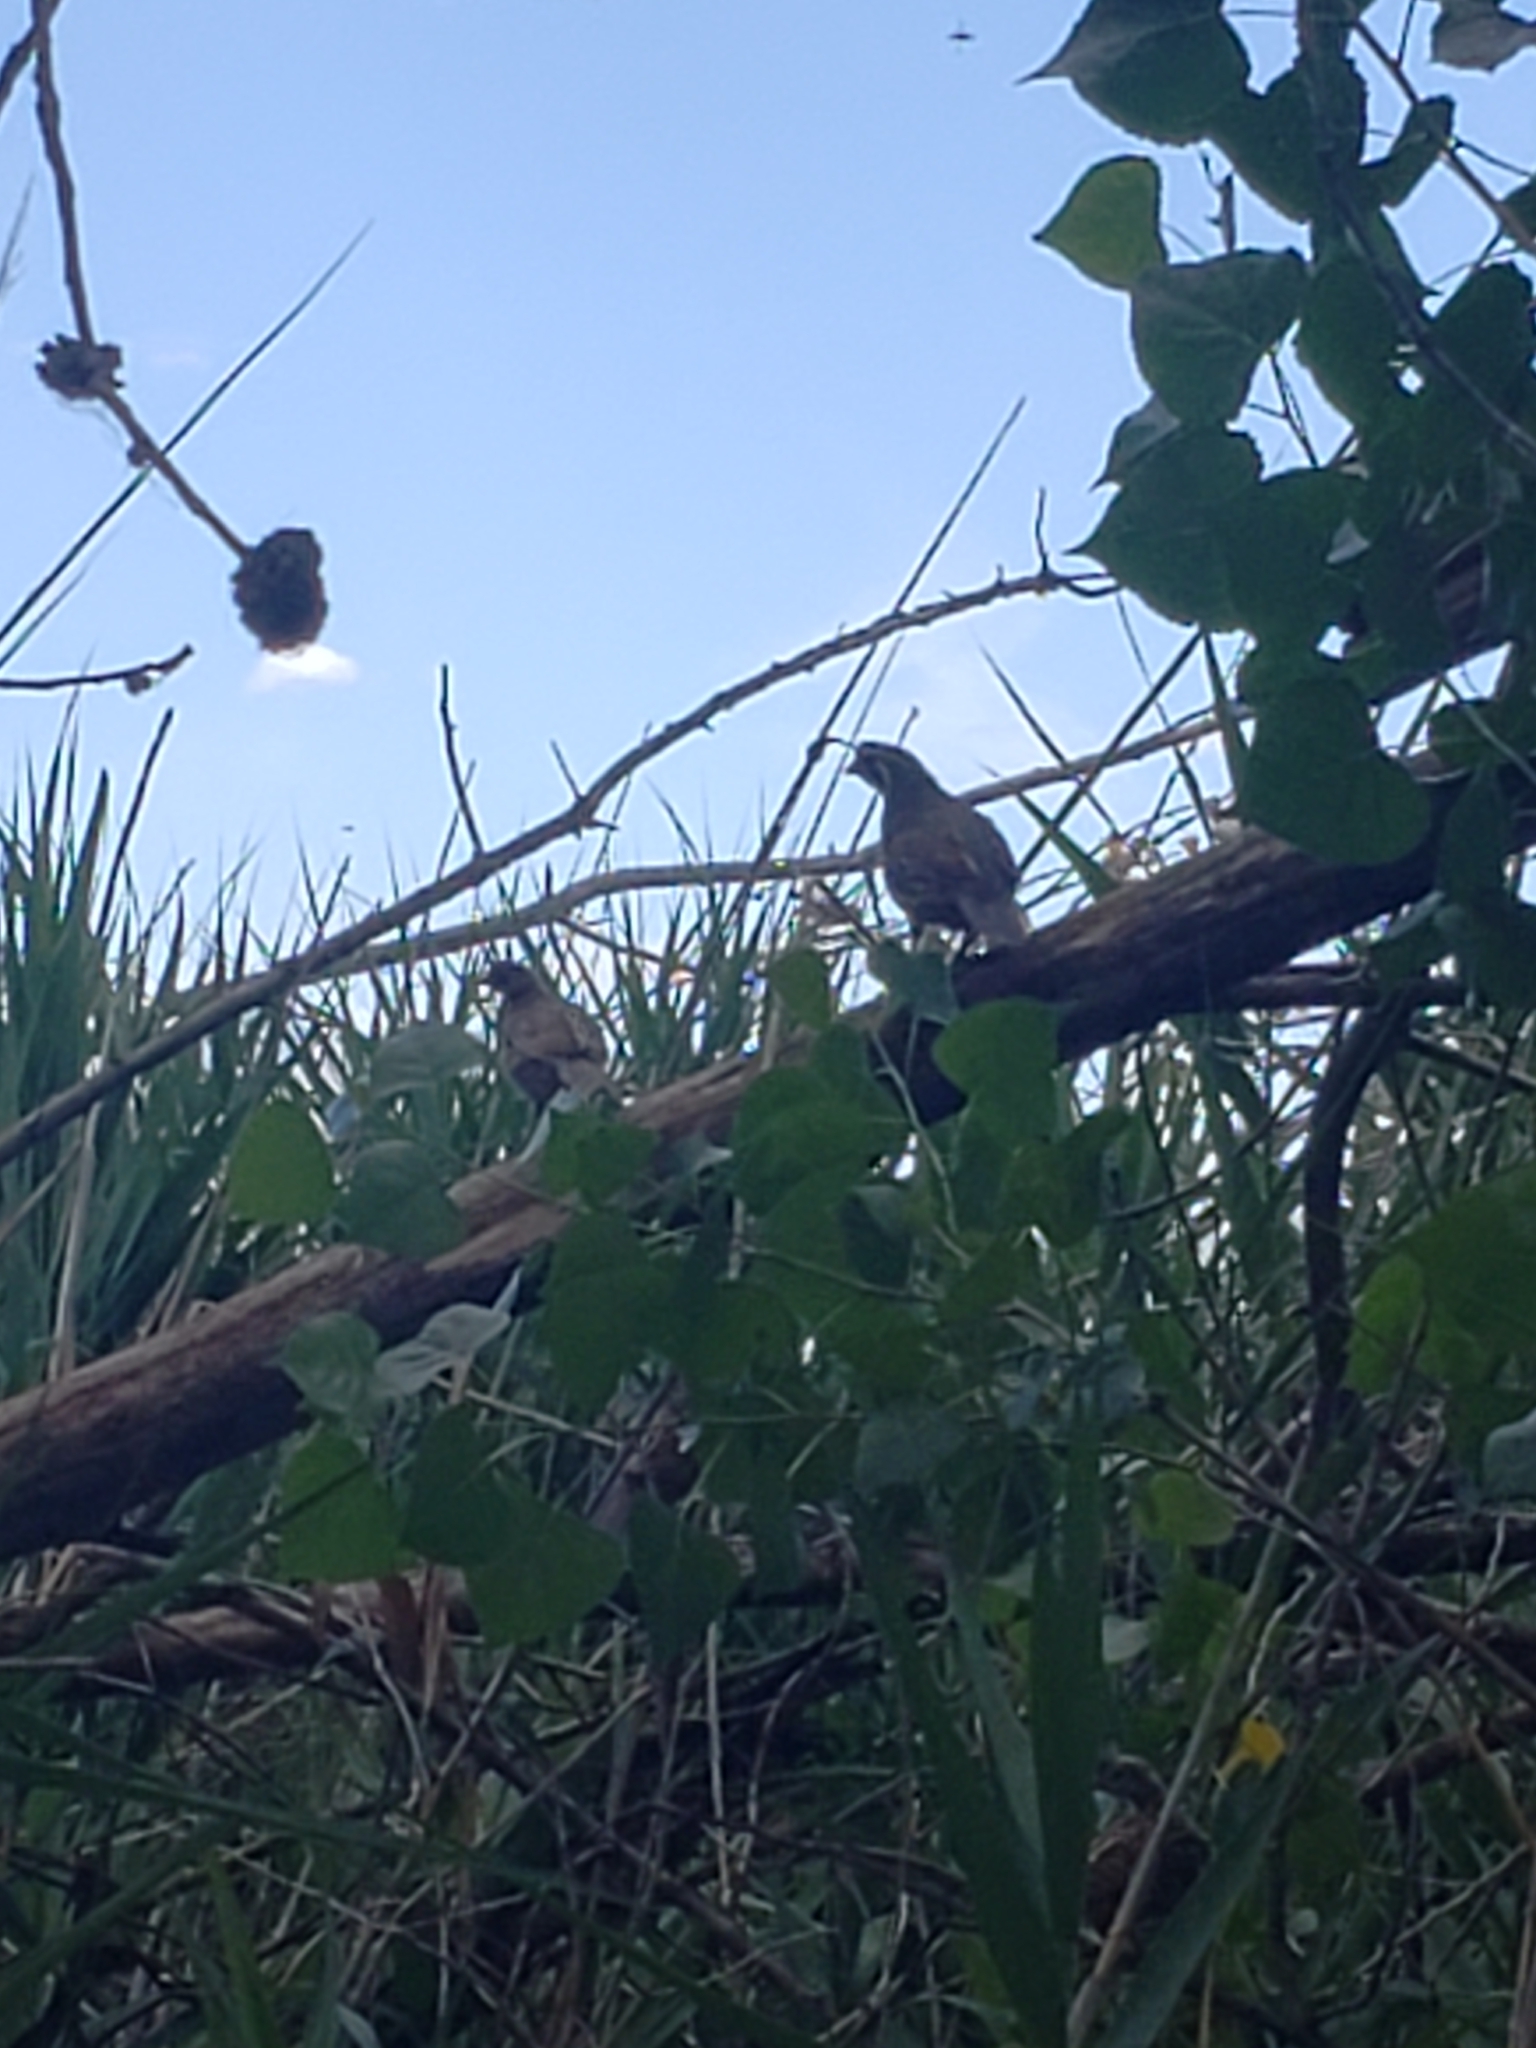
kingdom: Animalia
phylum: Chordata
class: Aves
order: Galliformes
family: Odontophoridae
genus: Callipepla
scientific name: Callipepla californica
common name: California quail
